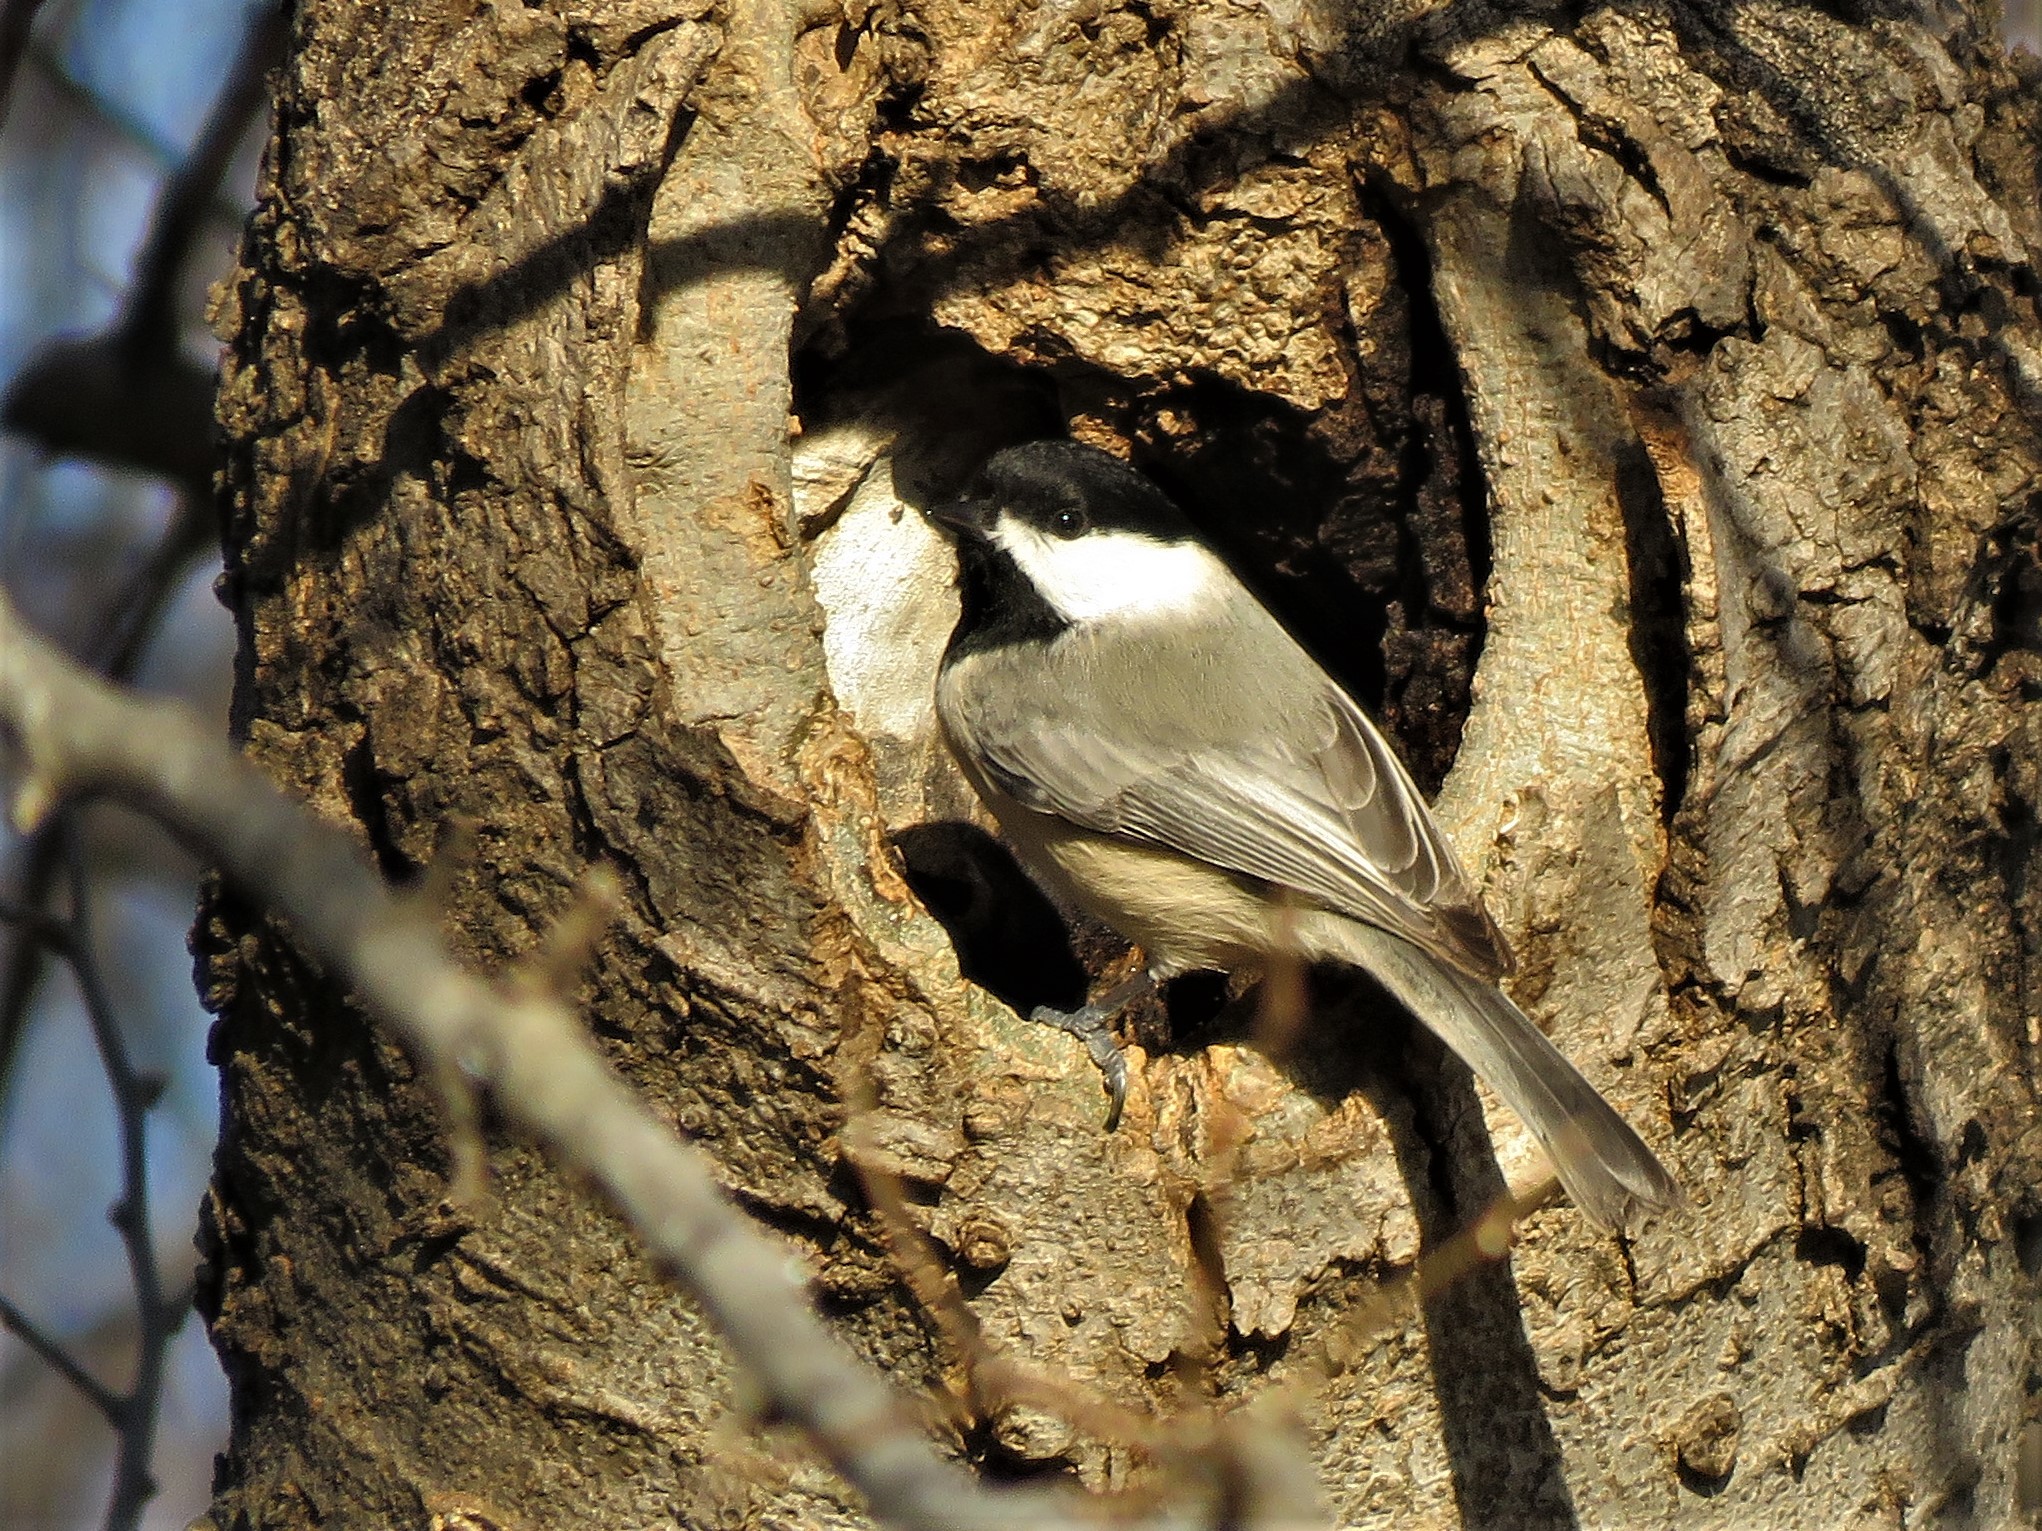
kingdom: Animalia
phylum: Chordata
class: Aves
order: Passeriformes
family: Paridae
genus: Poecile
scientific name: Poecile carolinensis
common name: Carolina chickadee
